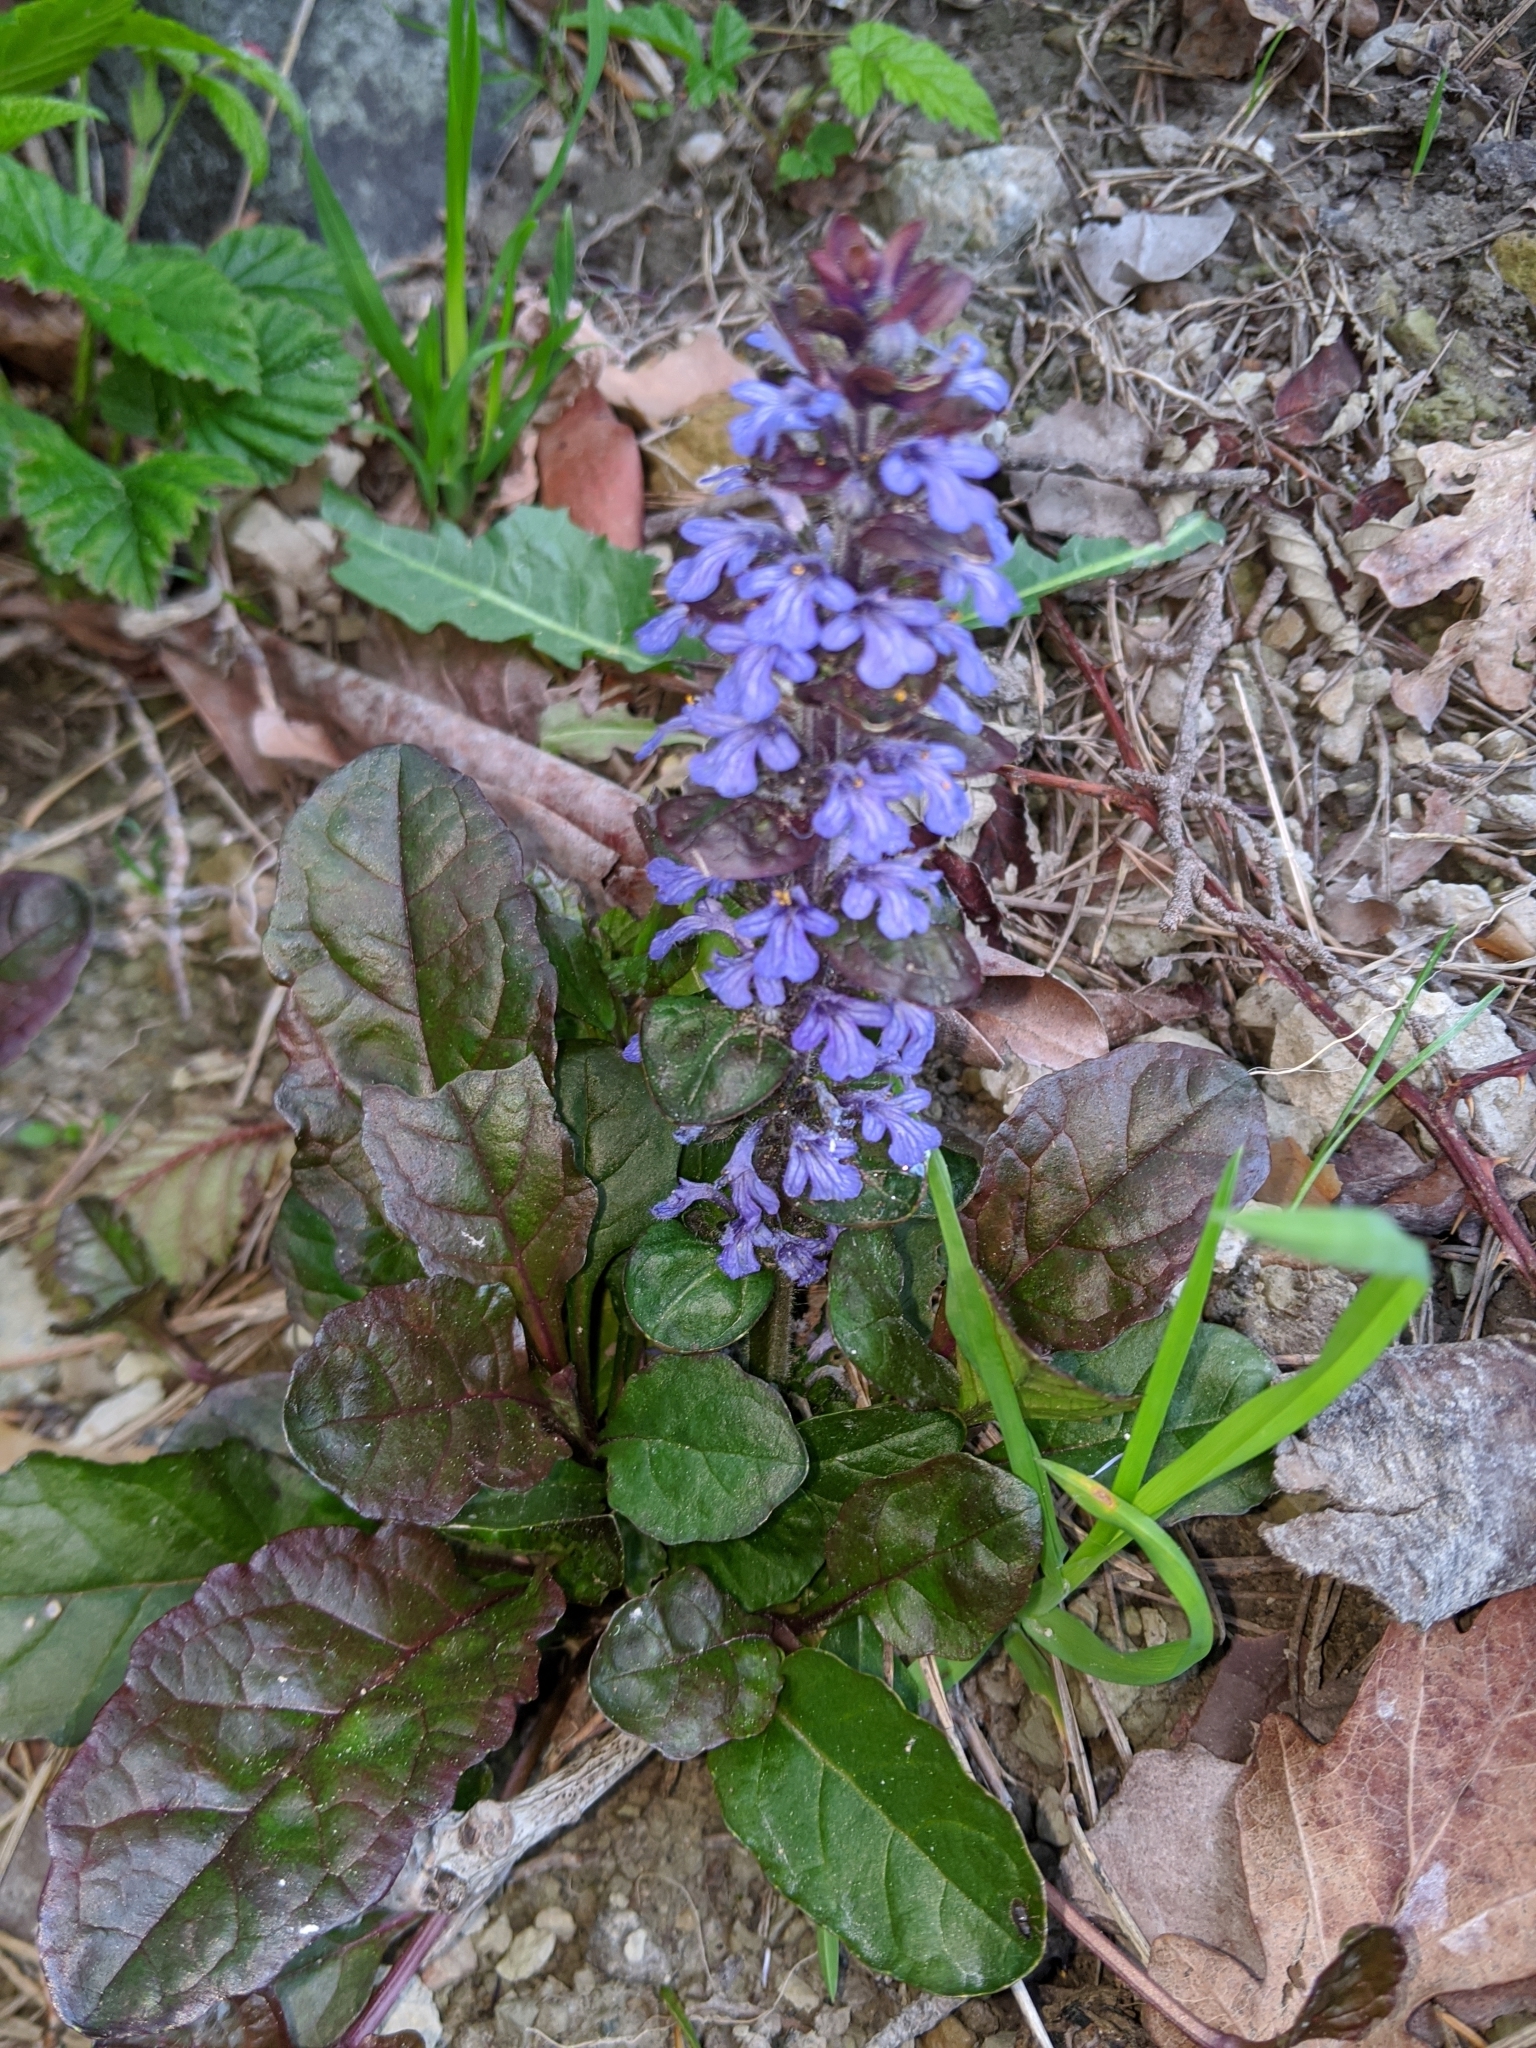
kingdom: Plantae
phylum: Tracheophyta
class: Magnoliopsida
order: Lamiales
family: Lamiaceae
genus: Ajuga
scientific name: Ajuga reptans
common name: Bugle
